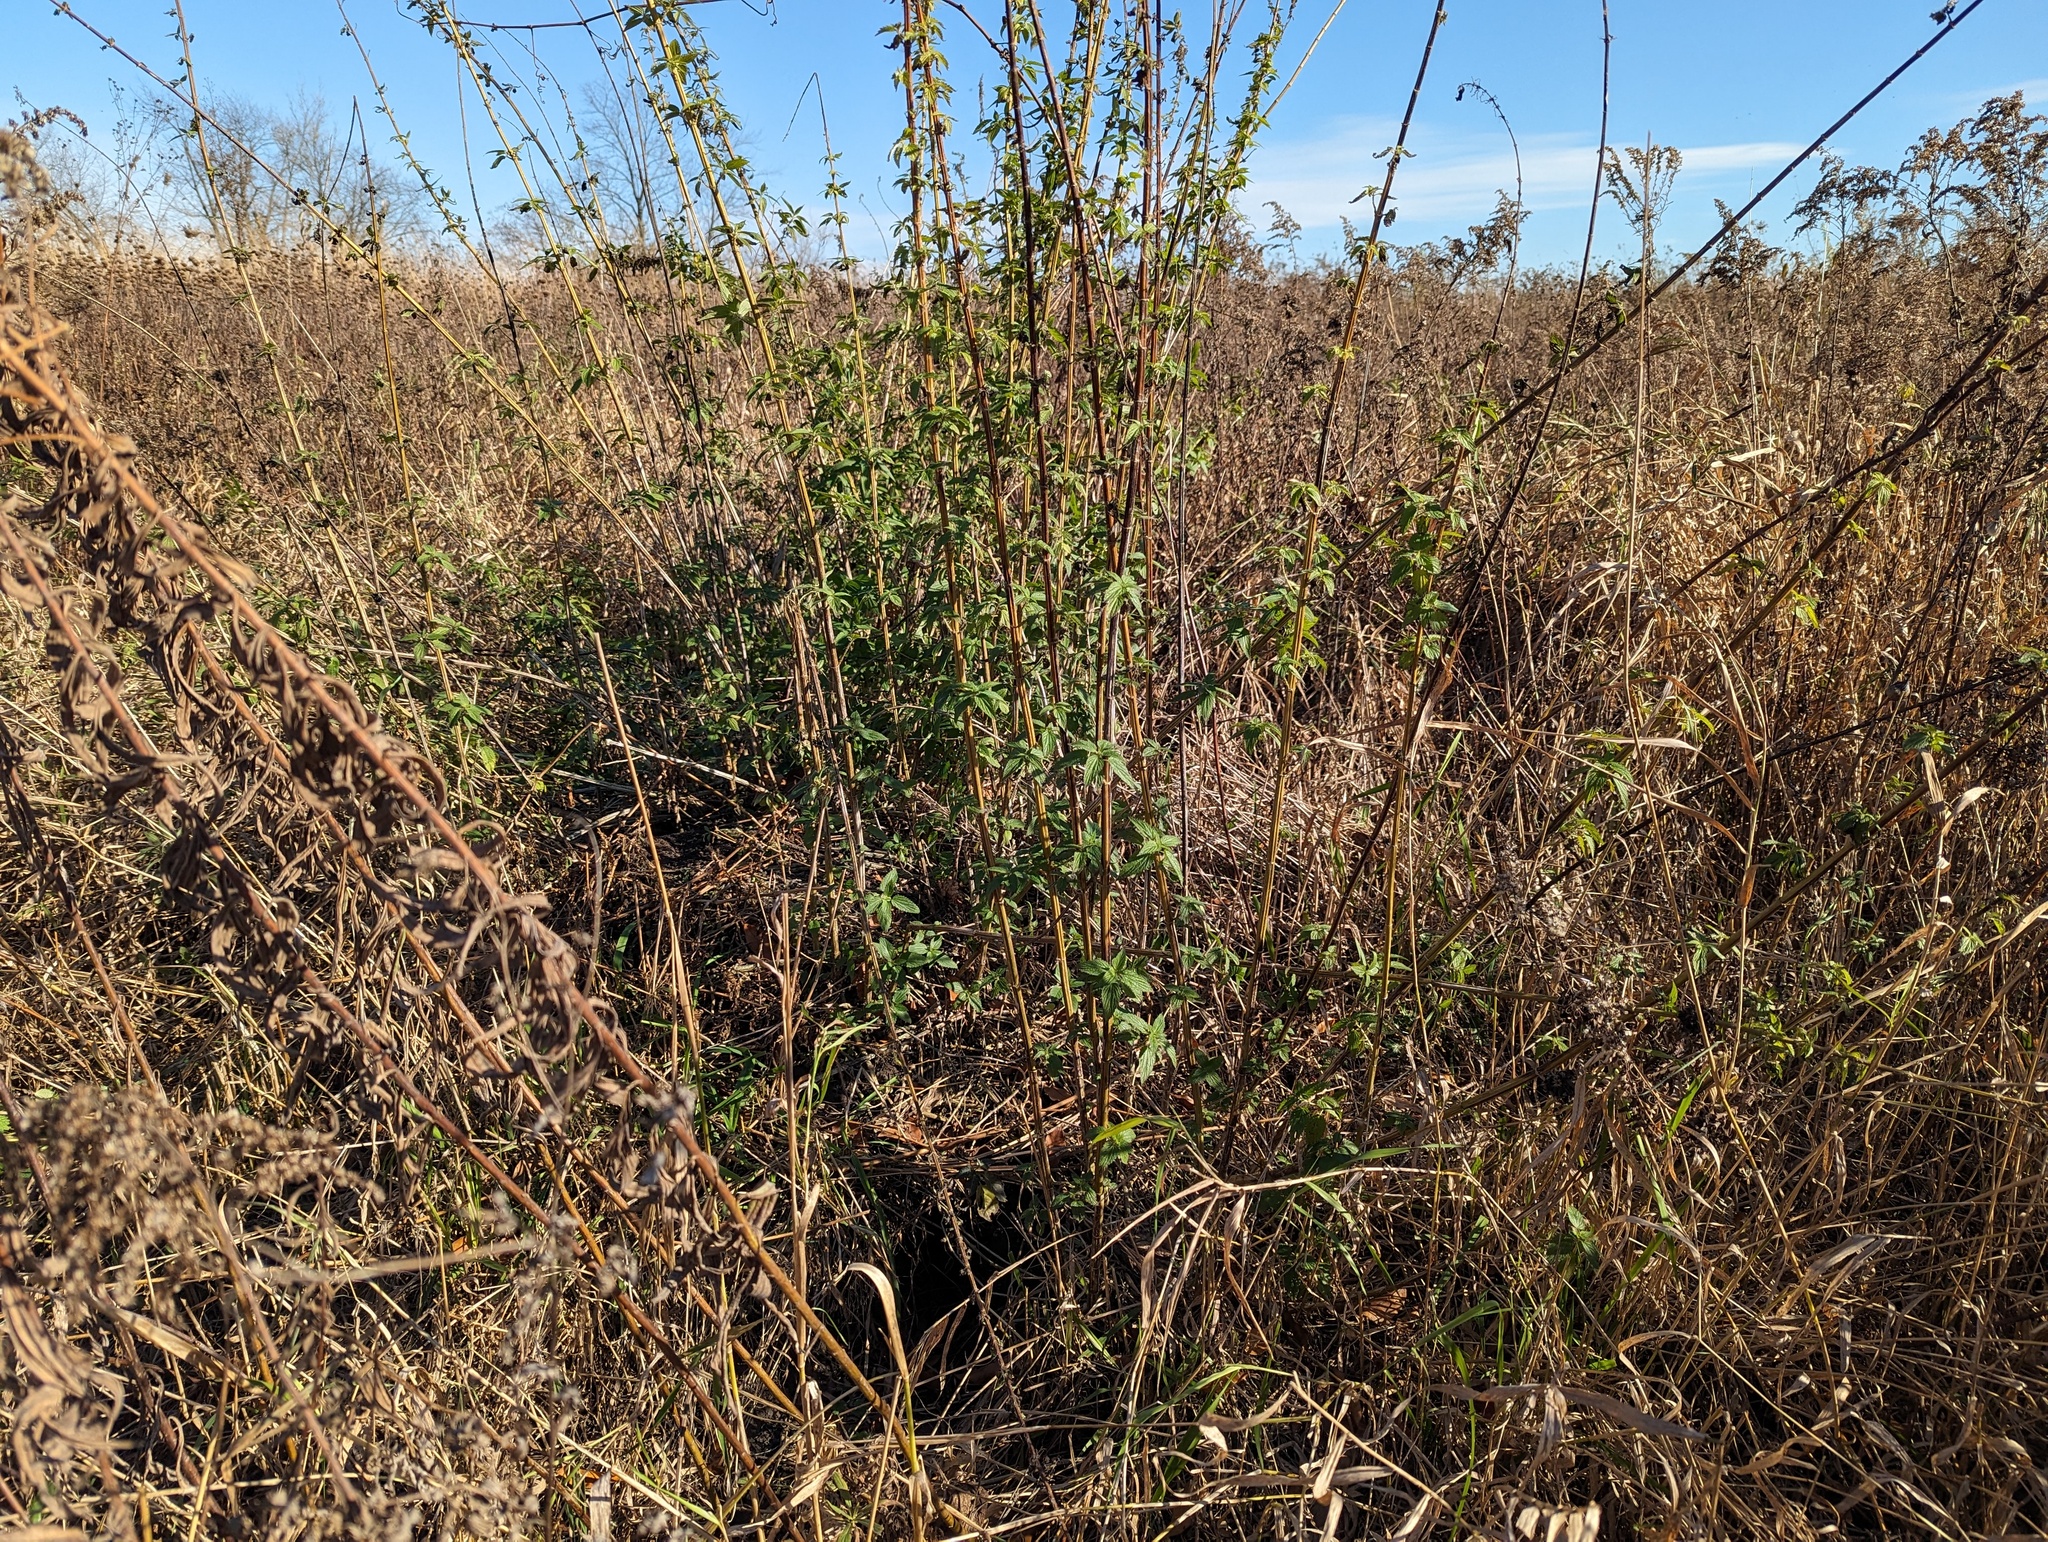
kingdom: Plantae
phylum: Tracheophyta
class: Magnoliopsida
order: Rosales
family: Urticaceae
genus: Urtica
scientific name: Urtica gracilis
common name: Slender stinging nettle
